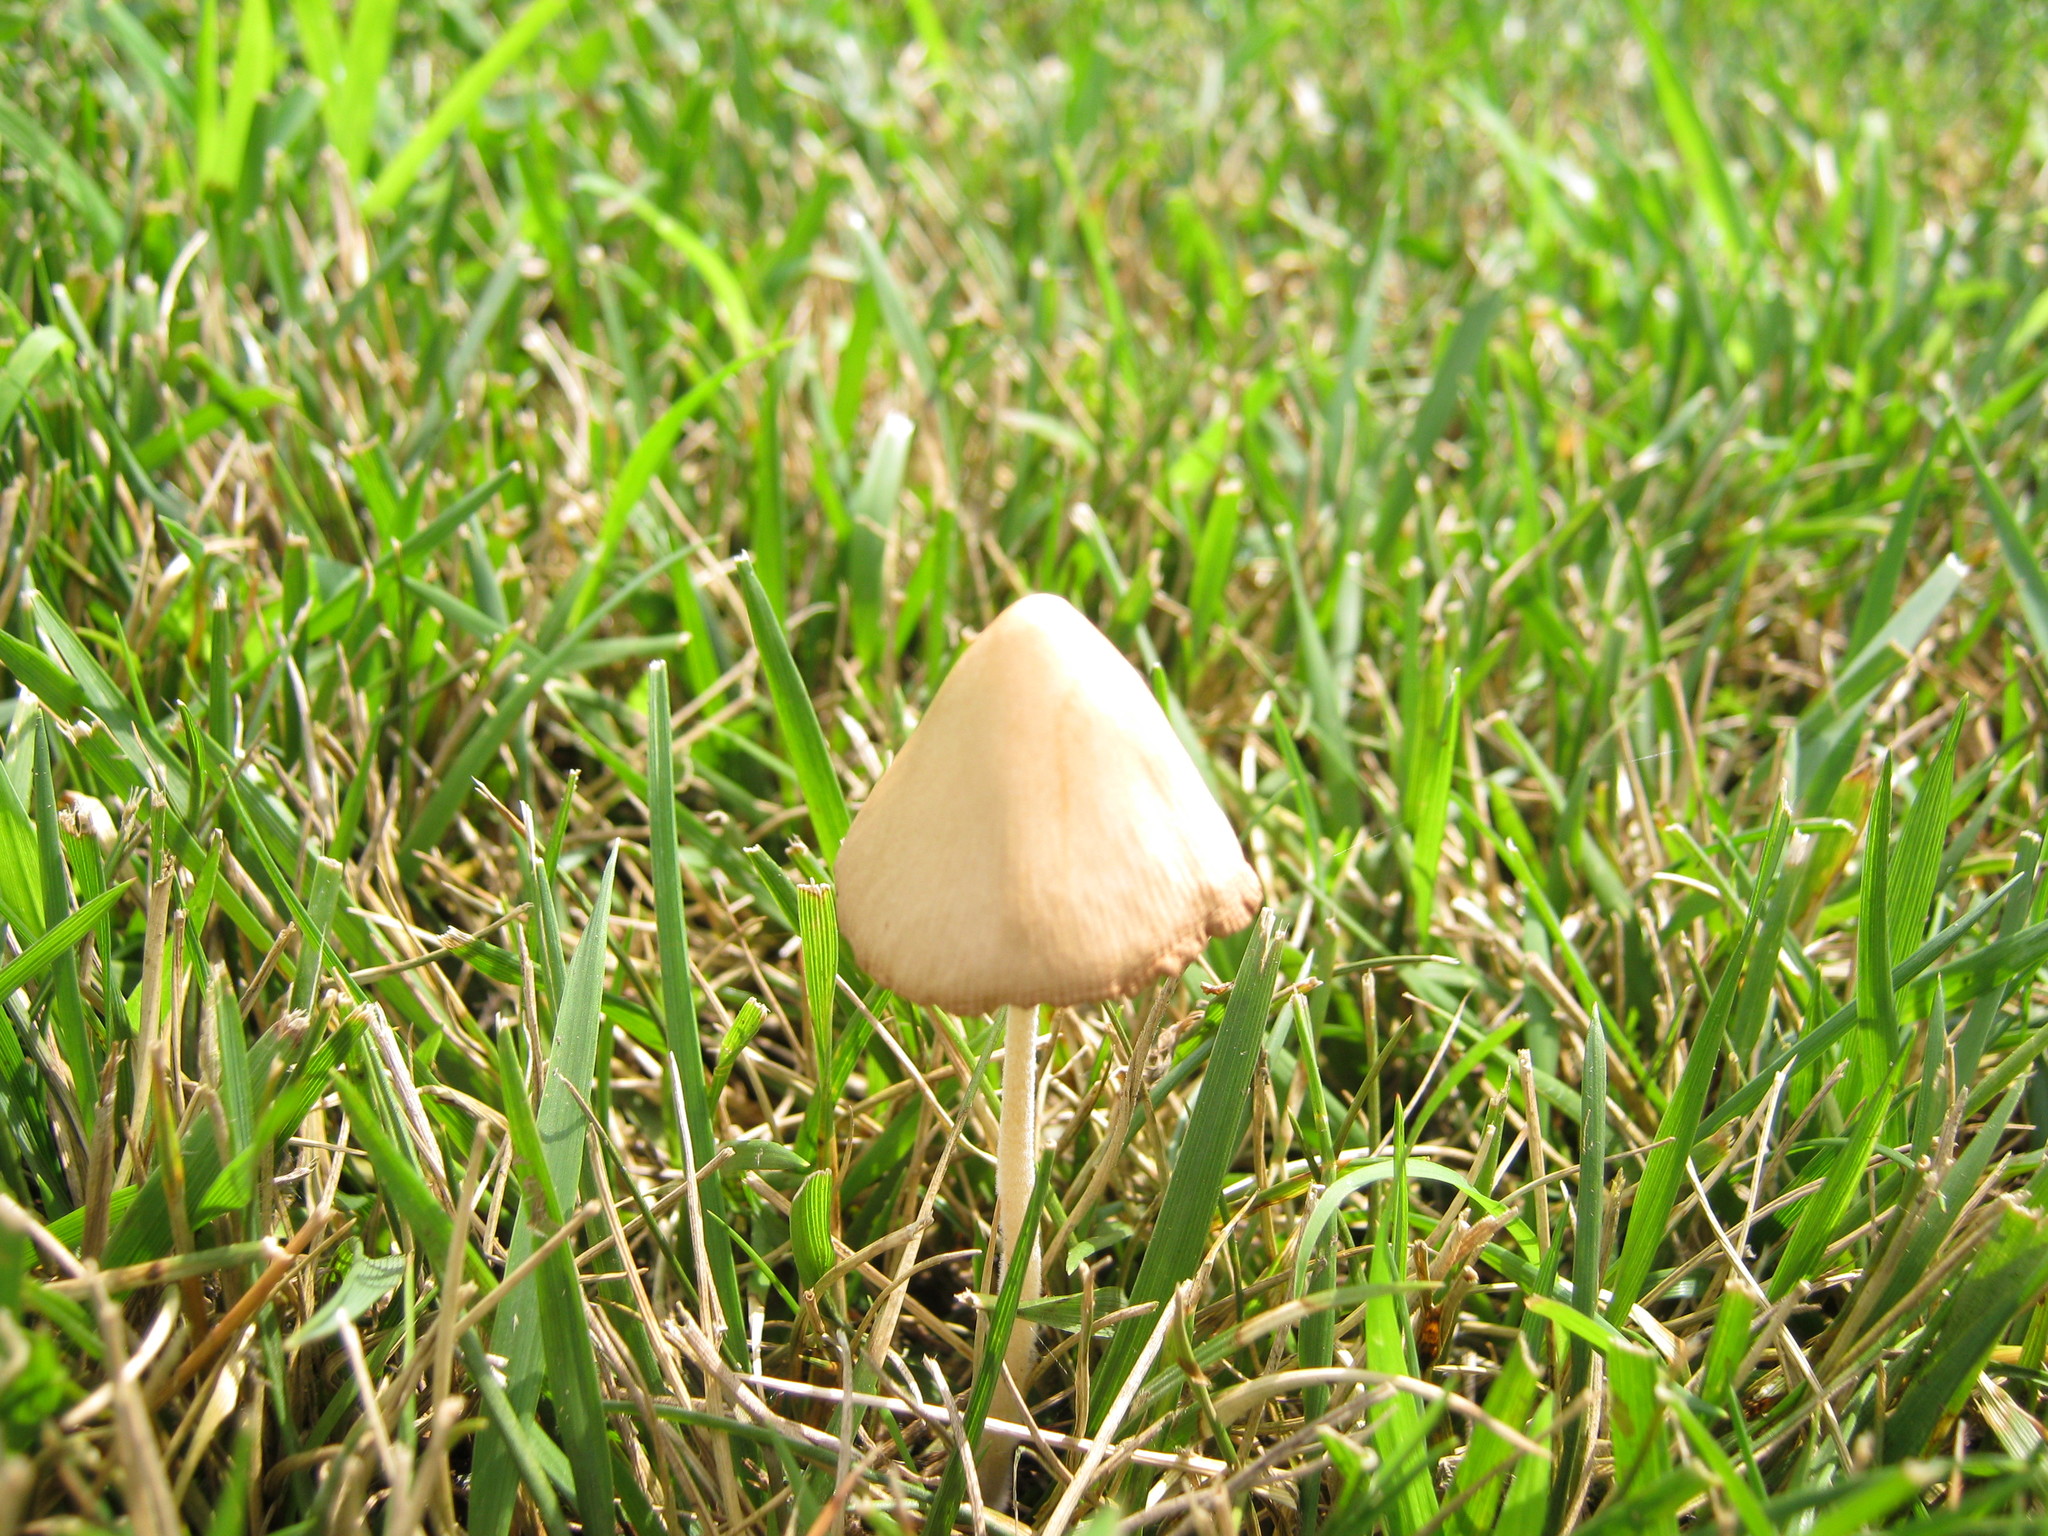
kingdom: Fungi
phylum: Basidiomycota
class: Agaricomycetes
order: Agaricales
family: Bolbitiaceae
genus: Conocybe
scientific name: Conocybe apala
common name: Milky conecap
